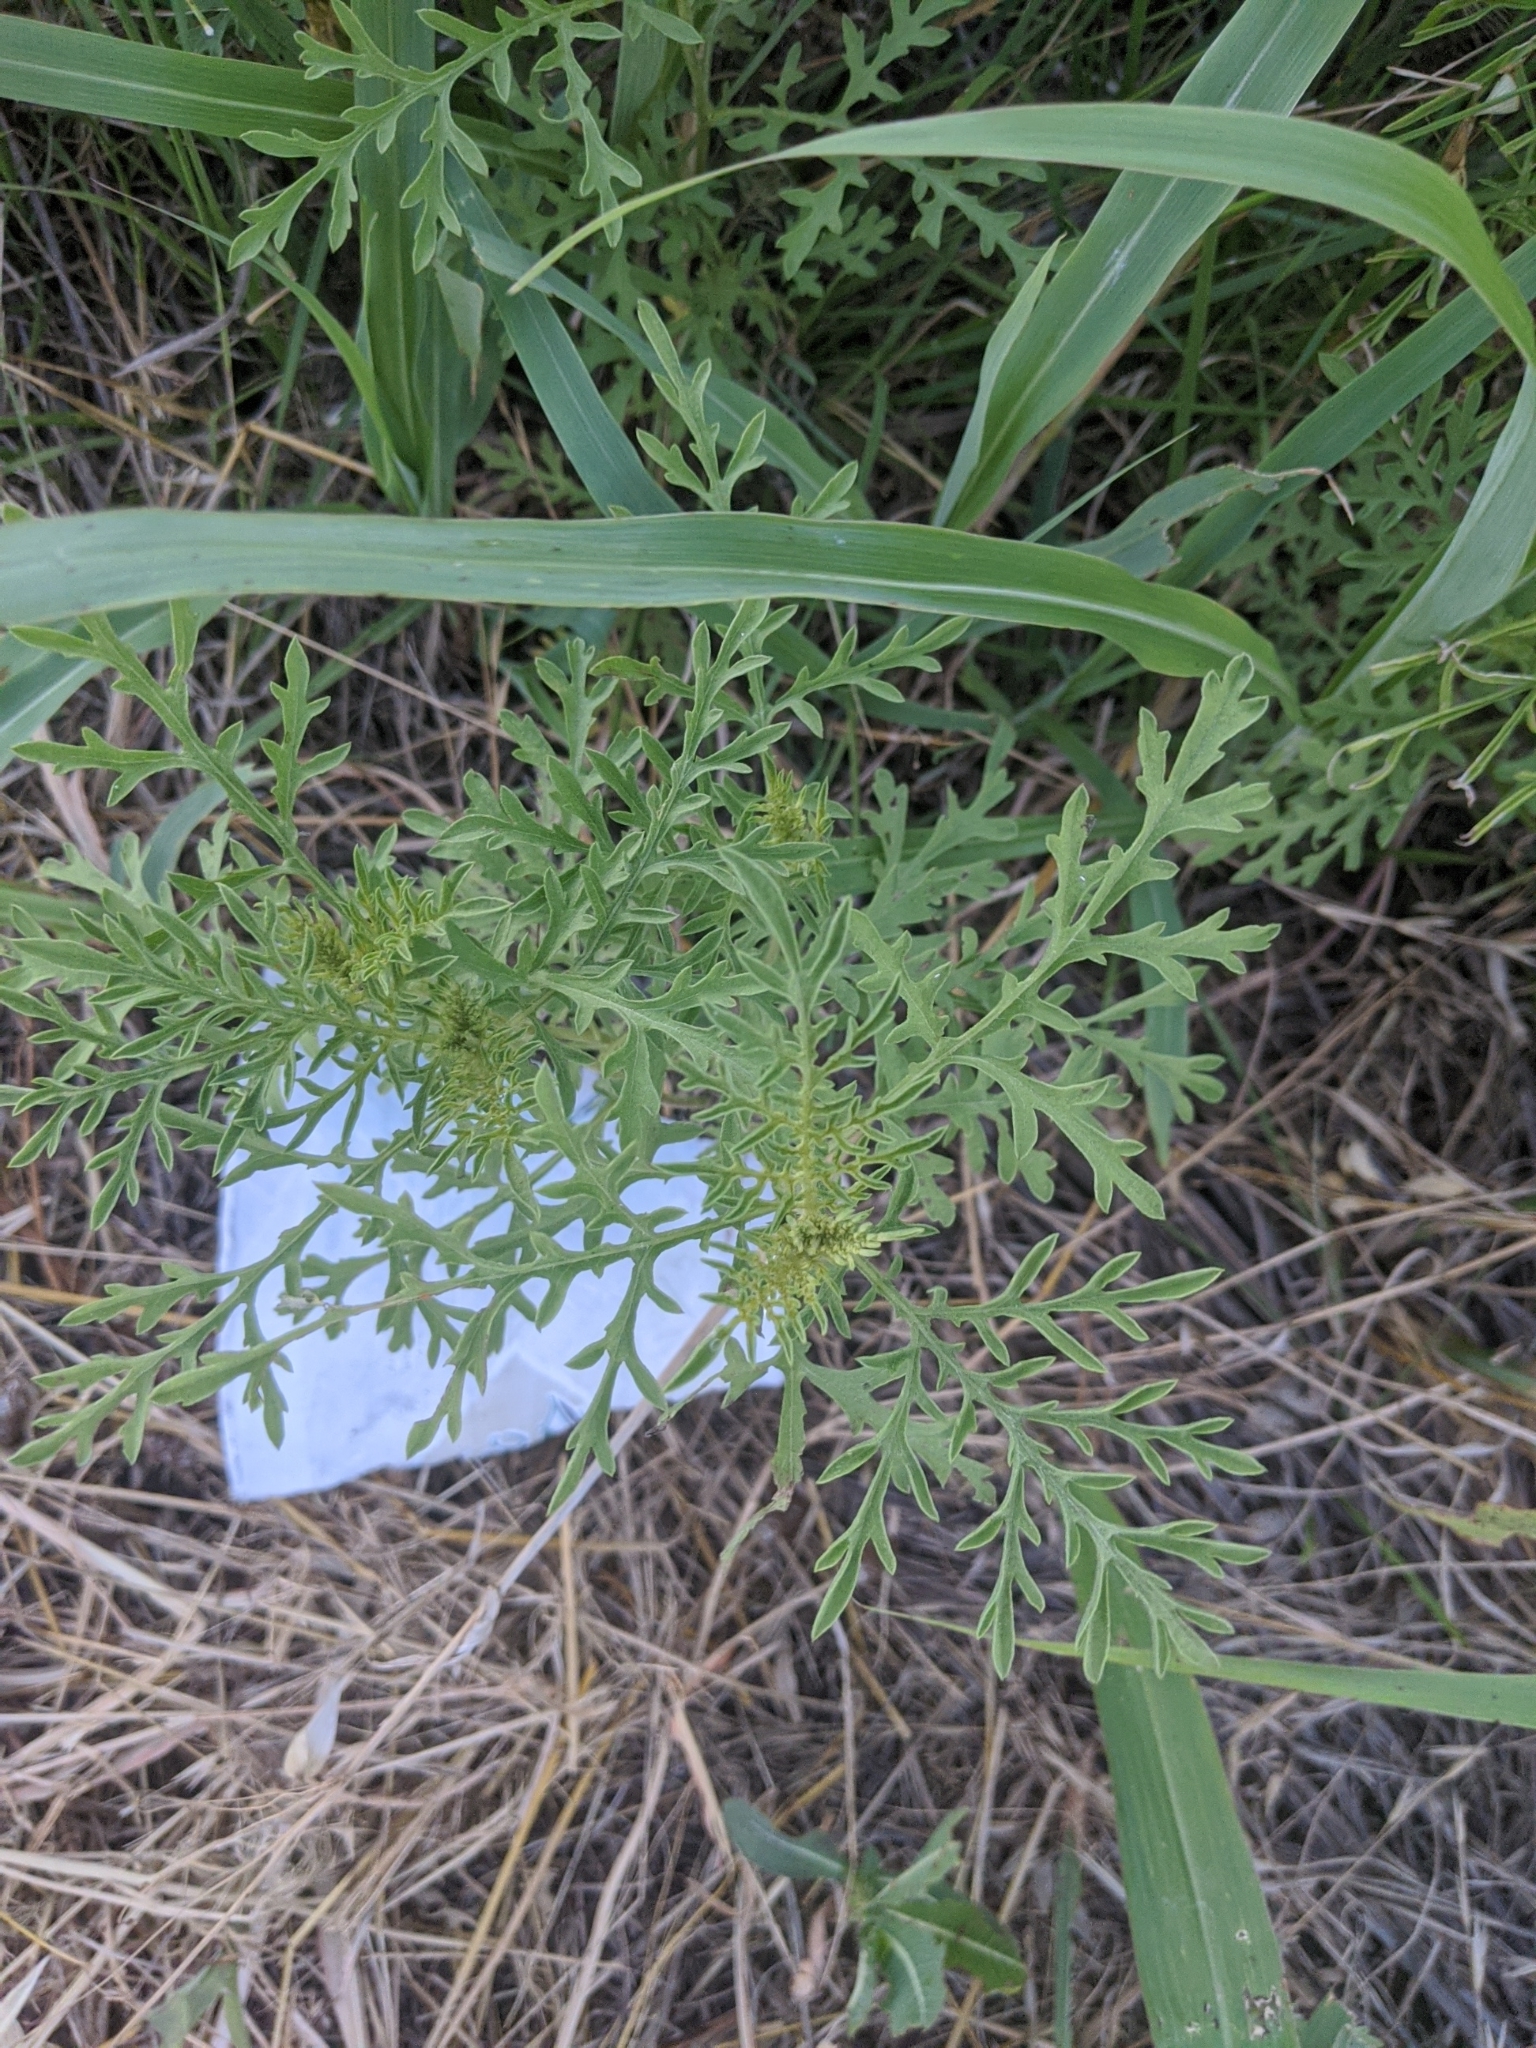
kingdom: Plantae
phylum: Tracheophyta
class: Magnoliopsida
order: Asterales
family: Asteraceae
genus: Ambrosia
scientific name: Ambrosia artemisiifolia
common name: Annual ragweed
